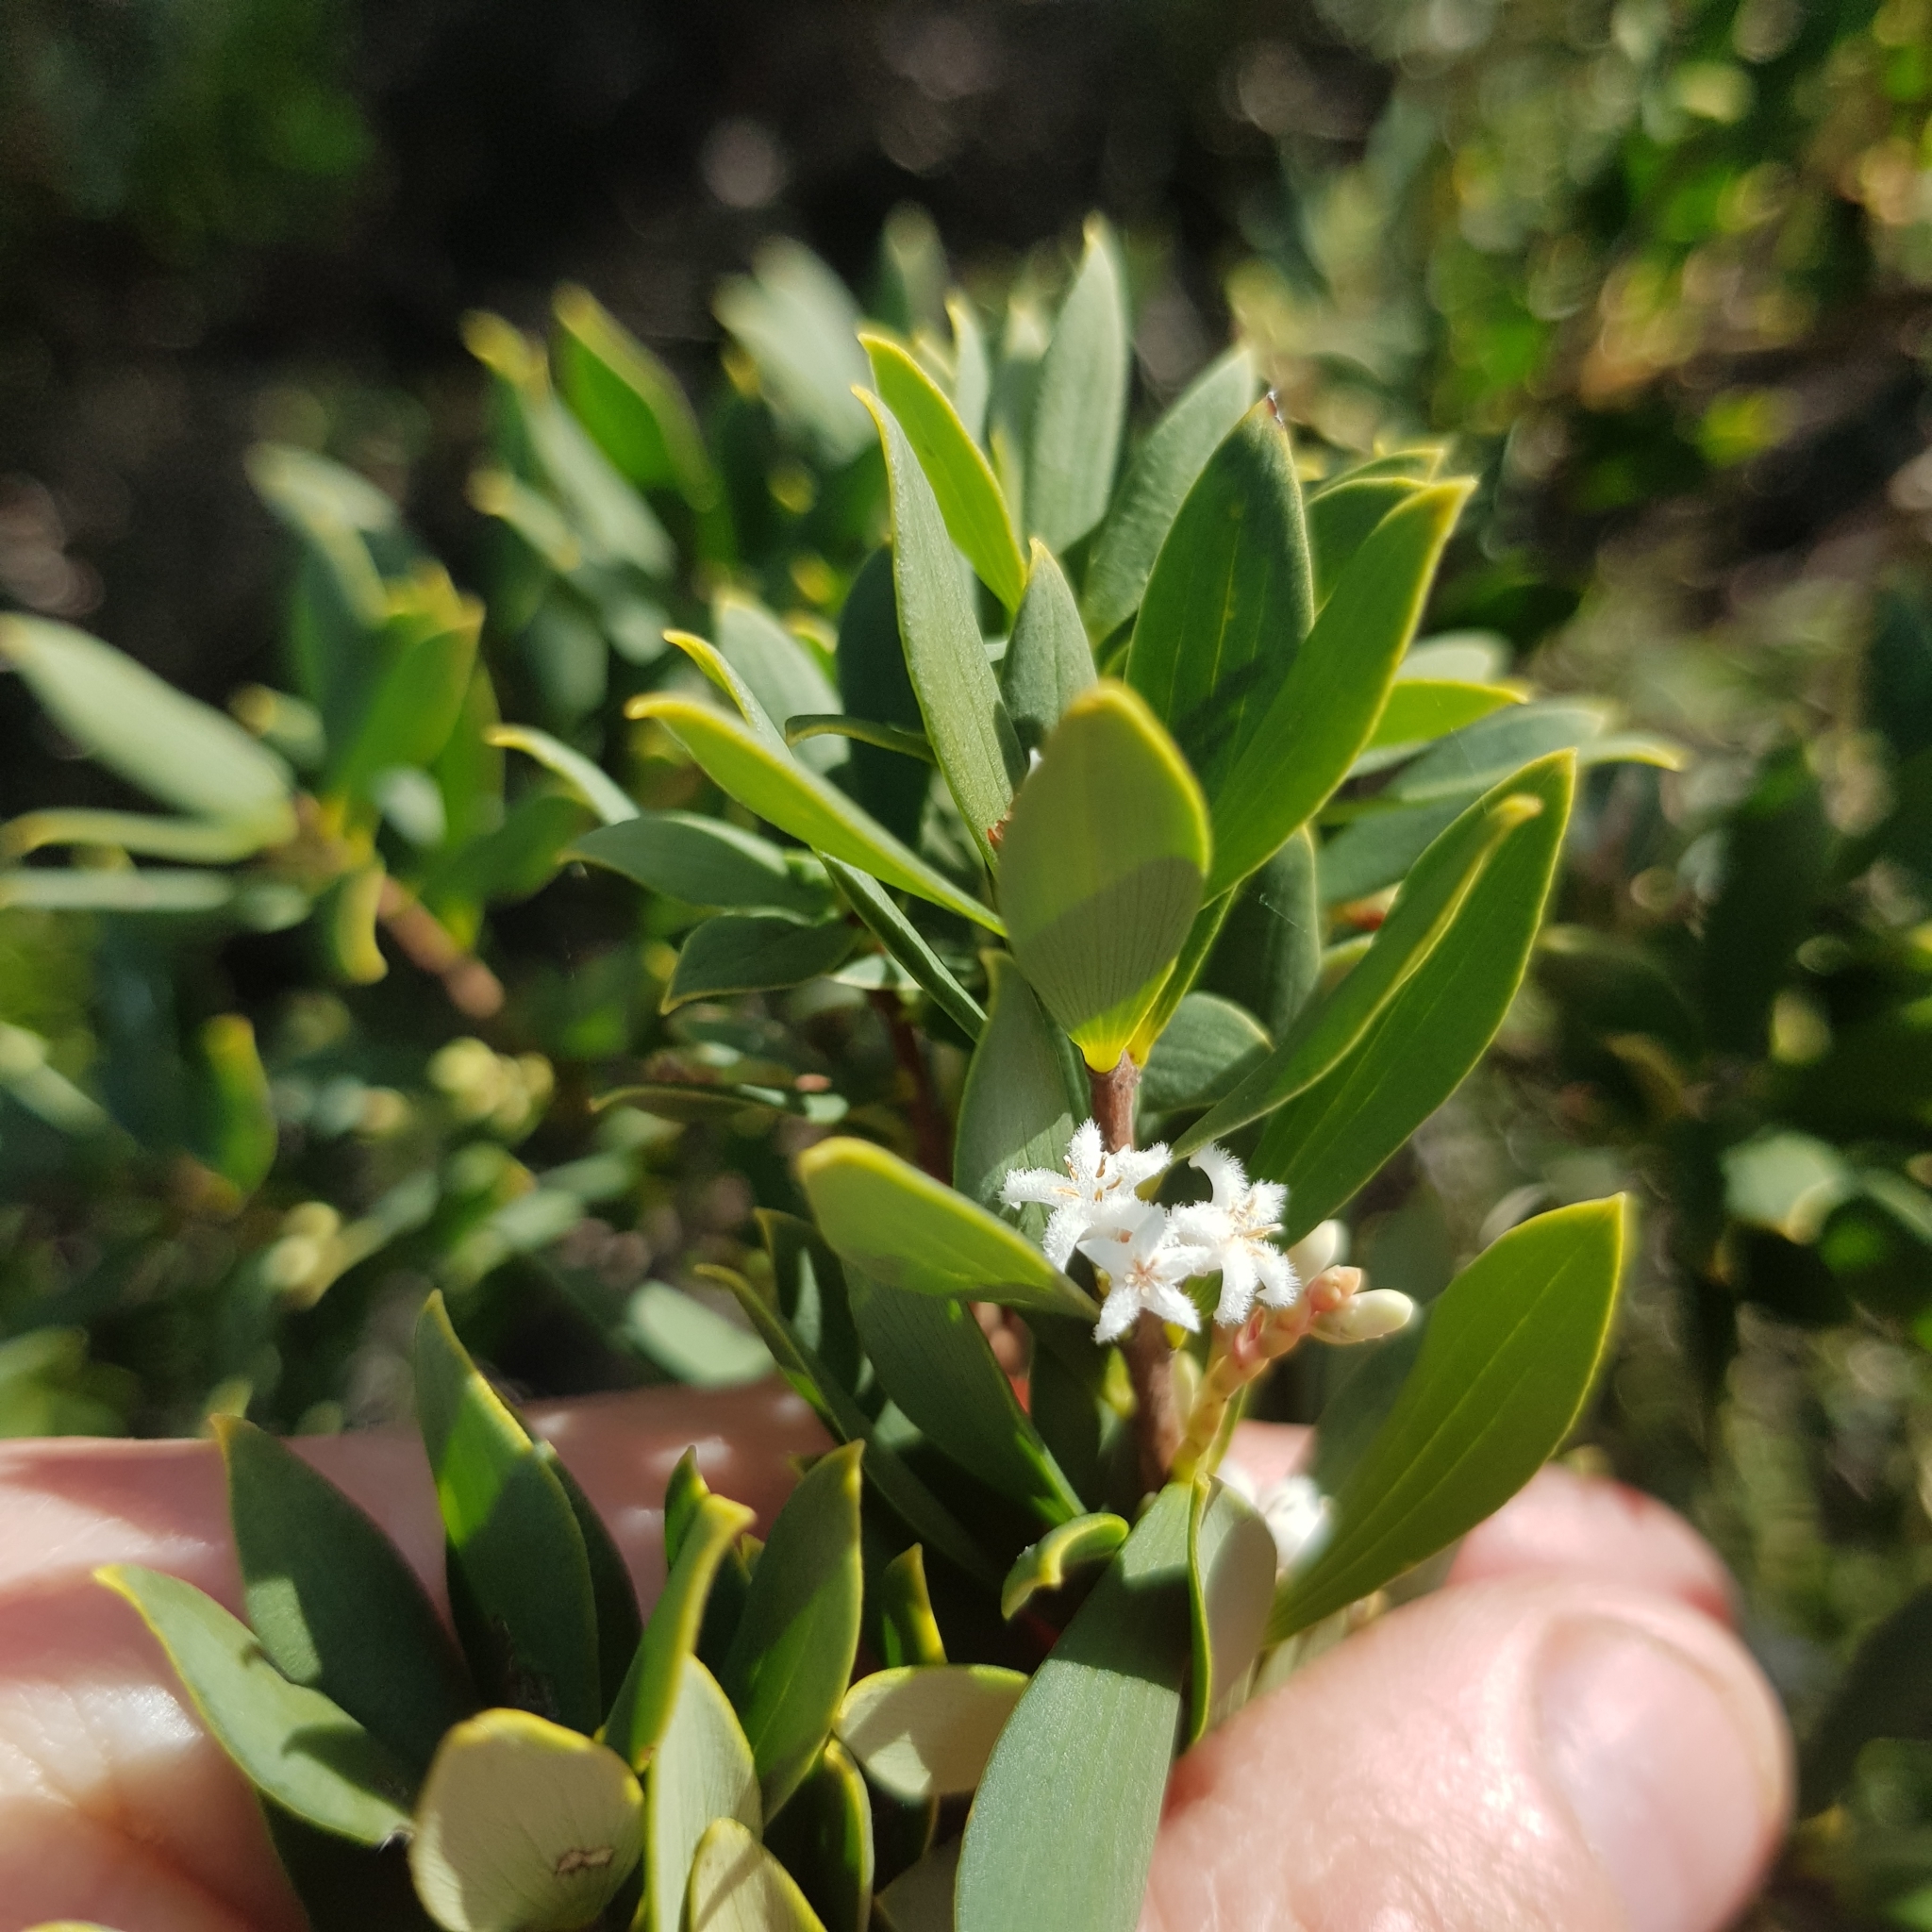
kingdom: Plantae
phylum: Tracheophyta
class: Magnoliopsida
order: Ericales
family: Ericaceae
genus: Leptecophylla
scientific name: Leptecophylla parvifolia
